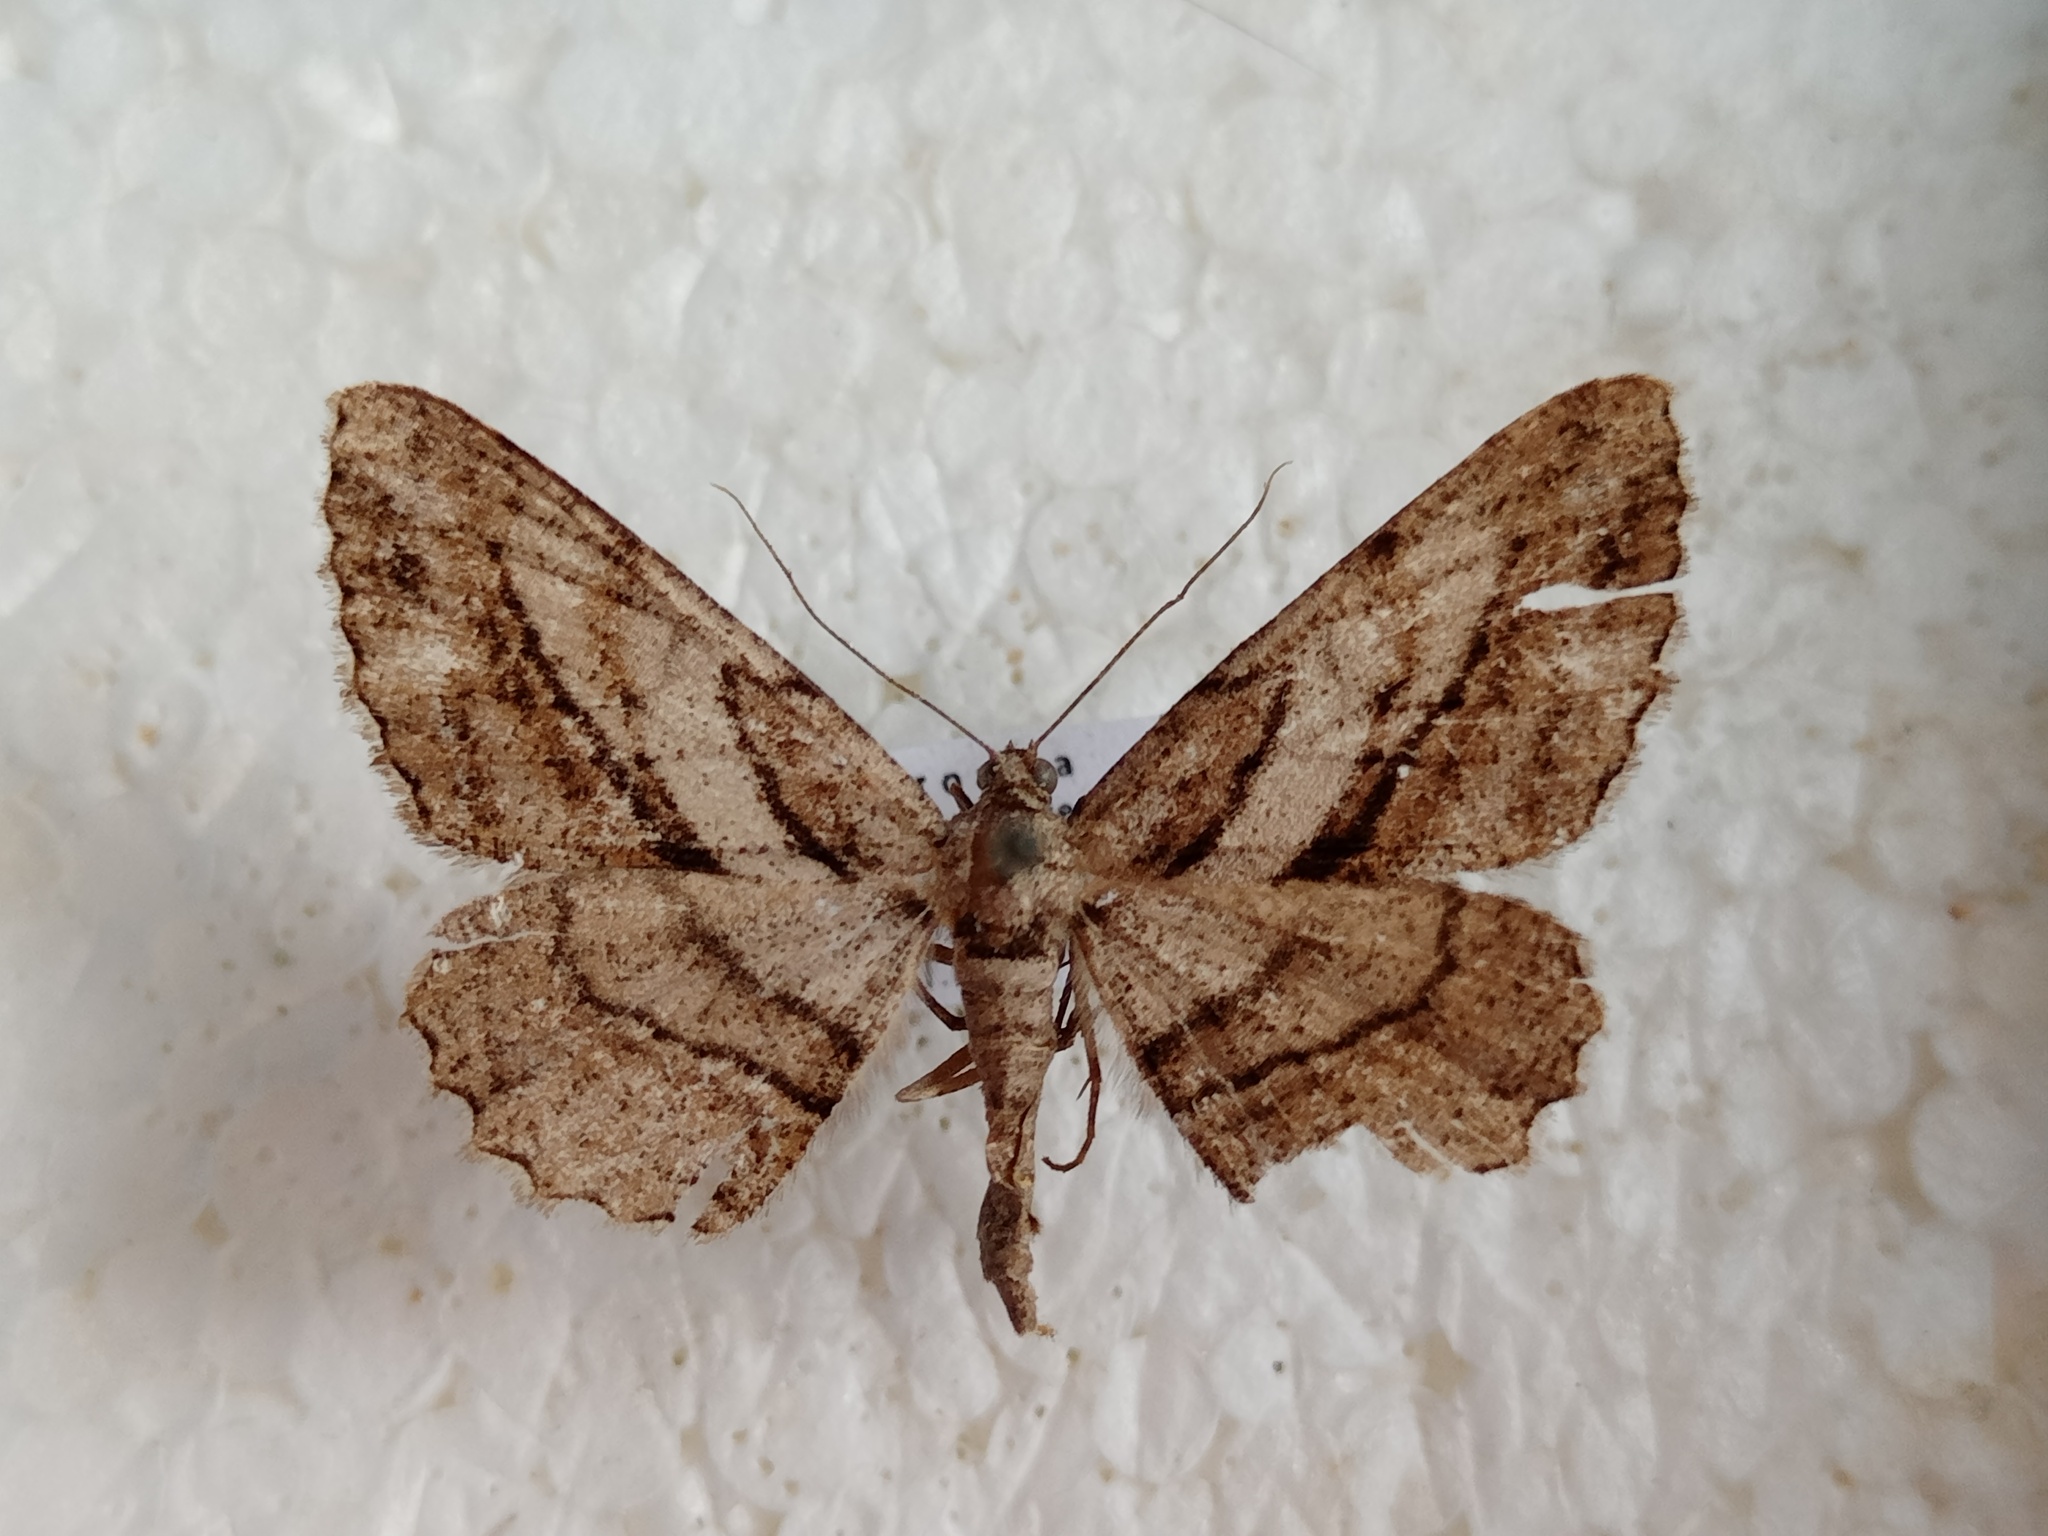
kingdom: Animalia
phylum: Arthropoda
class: Insecta
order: Lepidoptera
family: Geometridae
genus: Peribatodes
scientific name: Peribatodes correptaria
